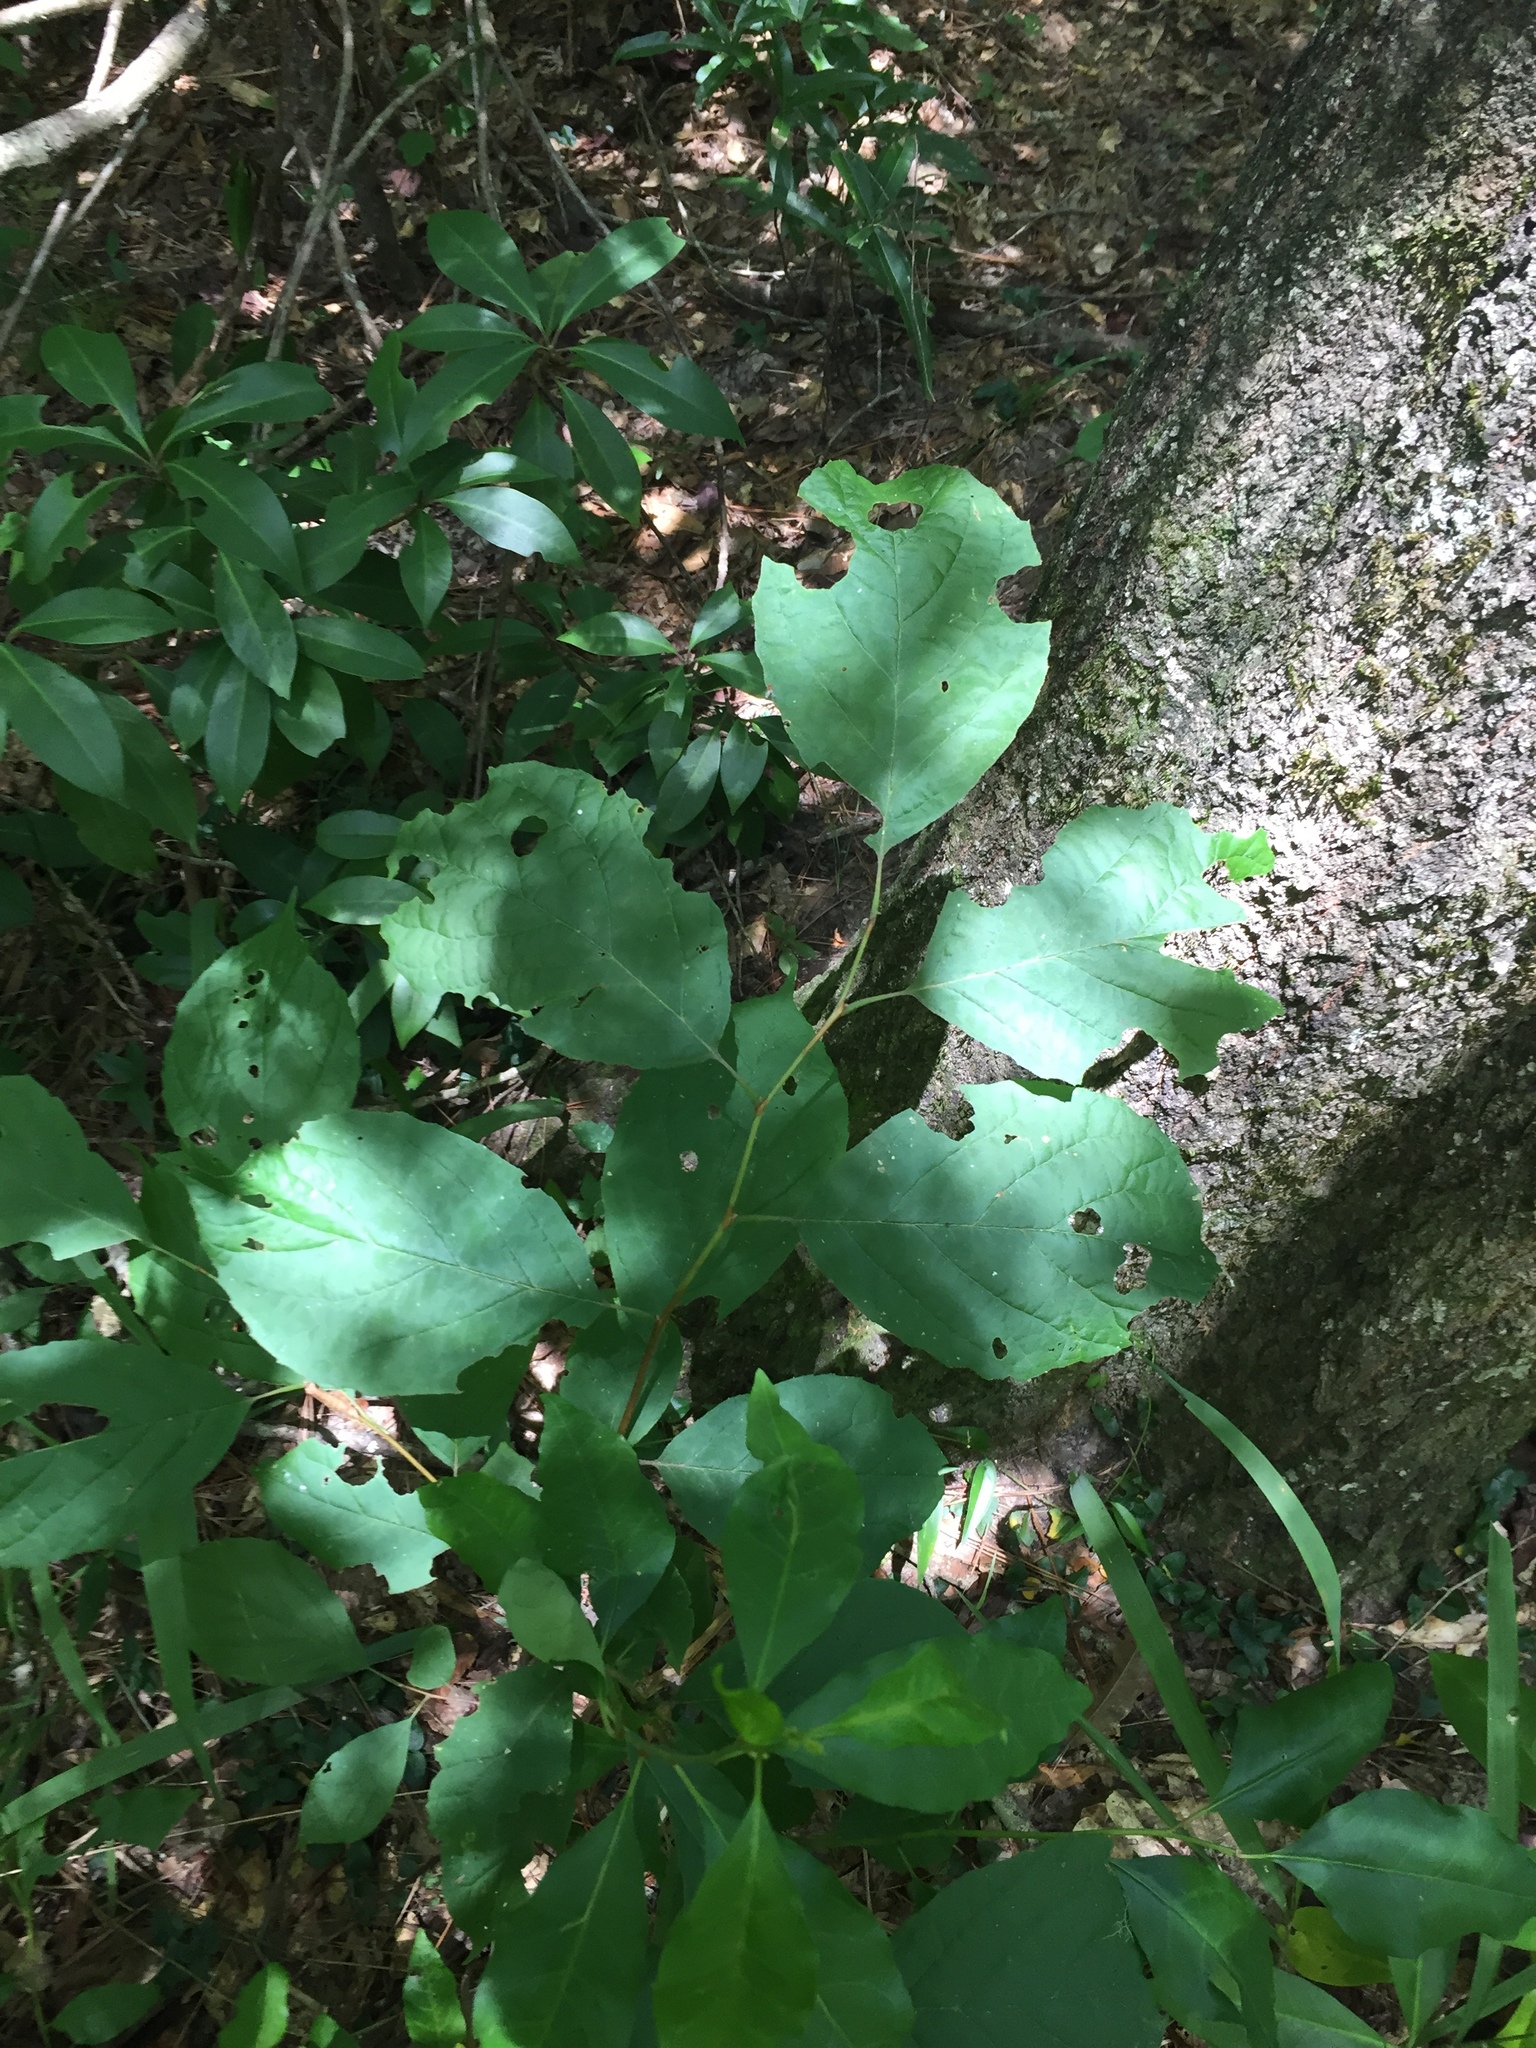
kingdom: Plantae
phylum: Tracheophyta
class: Magnoliopsida
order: Ericales
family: Styracaceae
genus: Halesia
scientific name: Halesia diptera
